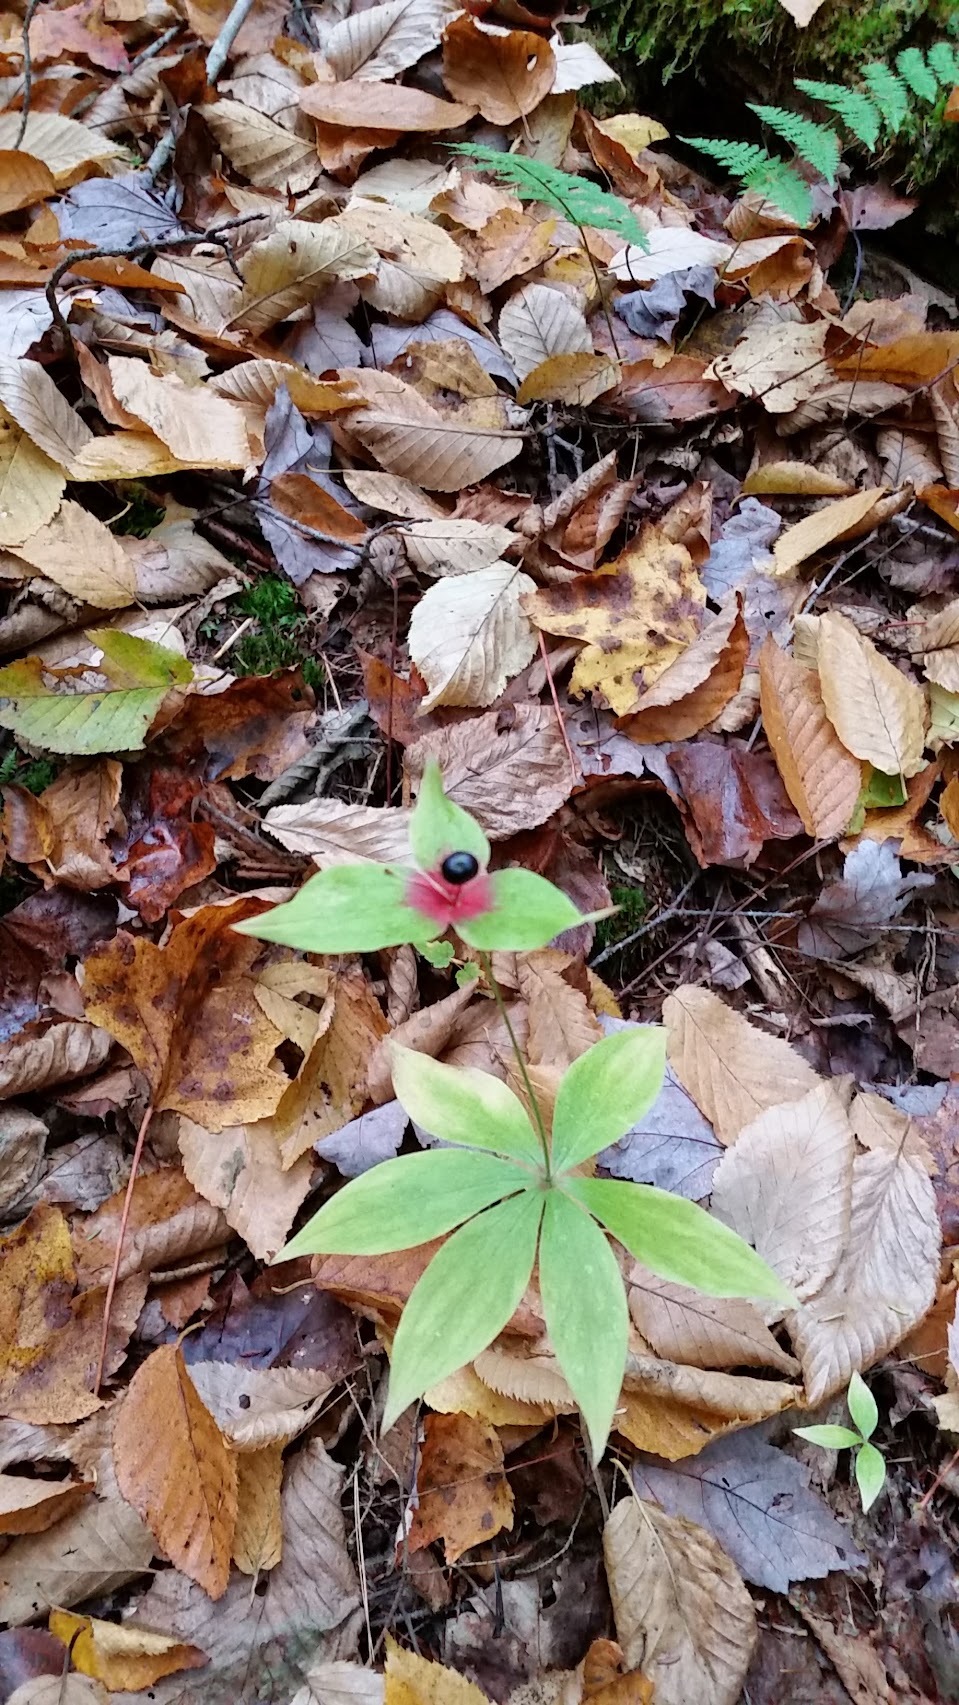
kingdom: Plantae
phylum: Tracheophyta
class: Liliopsida
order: Liliales
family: Liliaceae
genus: Medeola
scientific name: Medeola virginiana
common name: Indian cucumber-root
